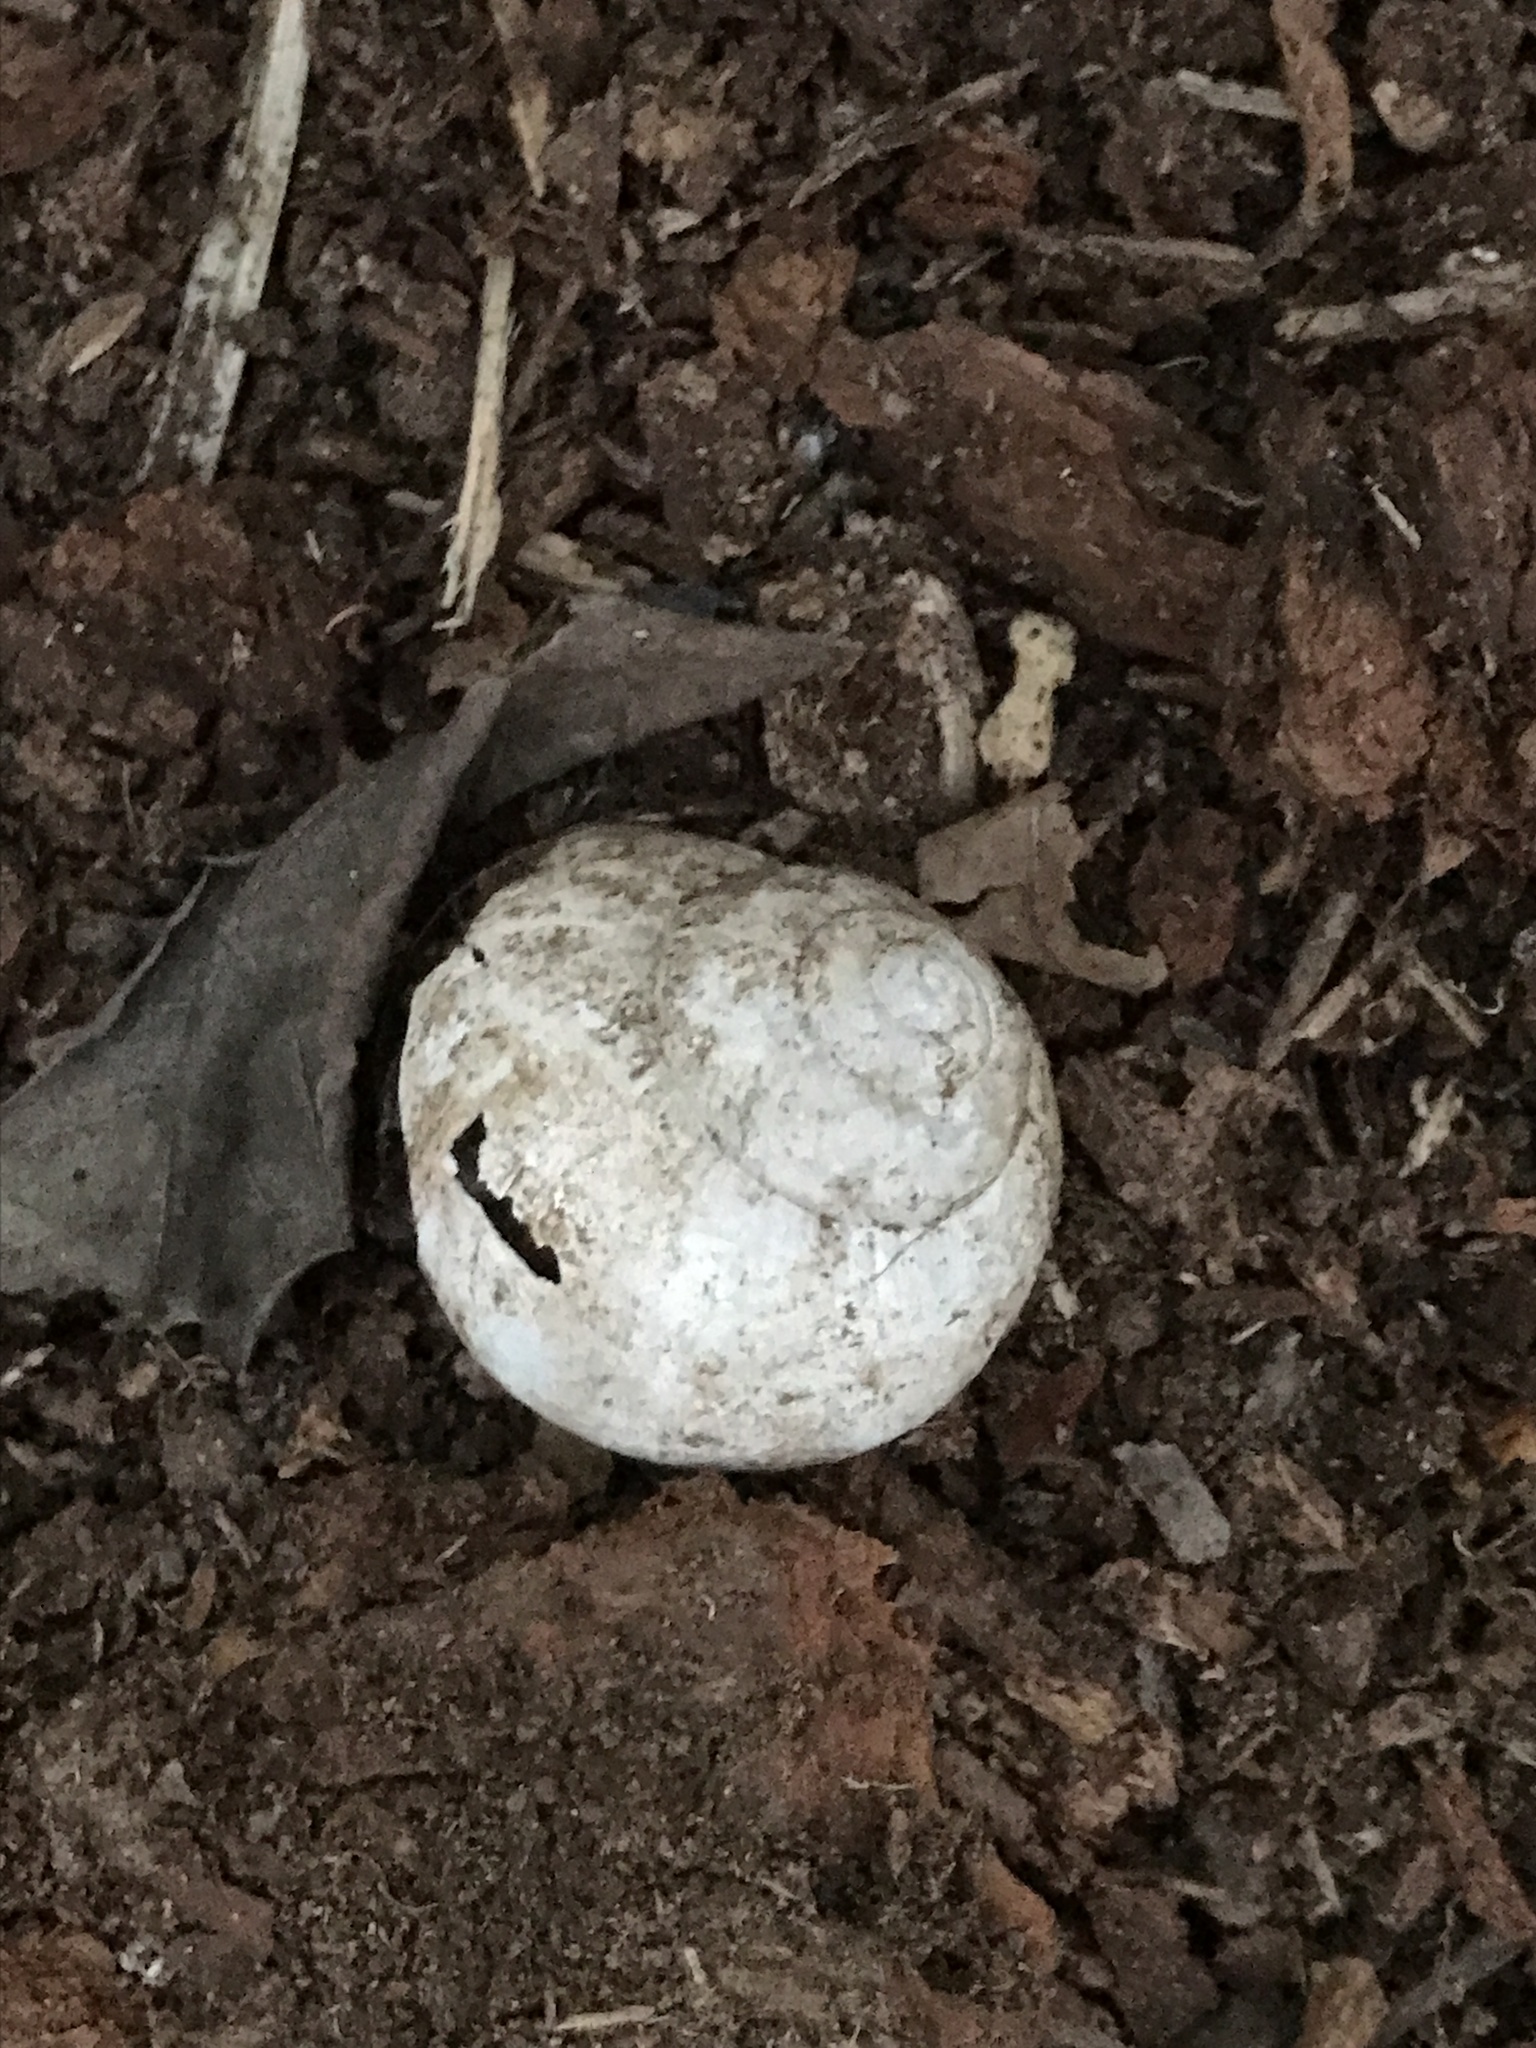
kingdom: Animalia
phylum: Mollusca
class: Gastropoda
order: Stylommatophora
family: Helicidae
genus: Helix
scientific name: Helix pomatia
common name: Roman snail
